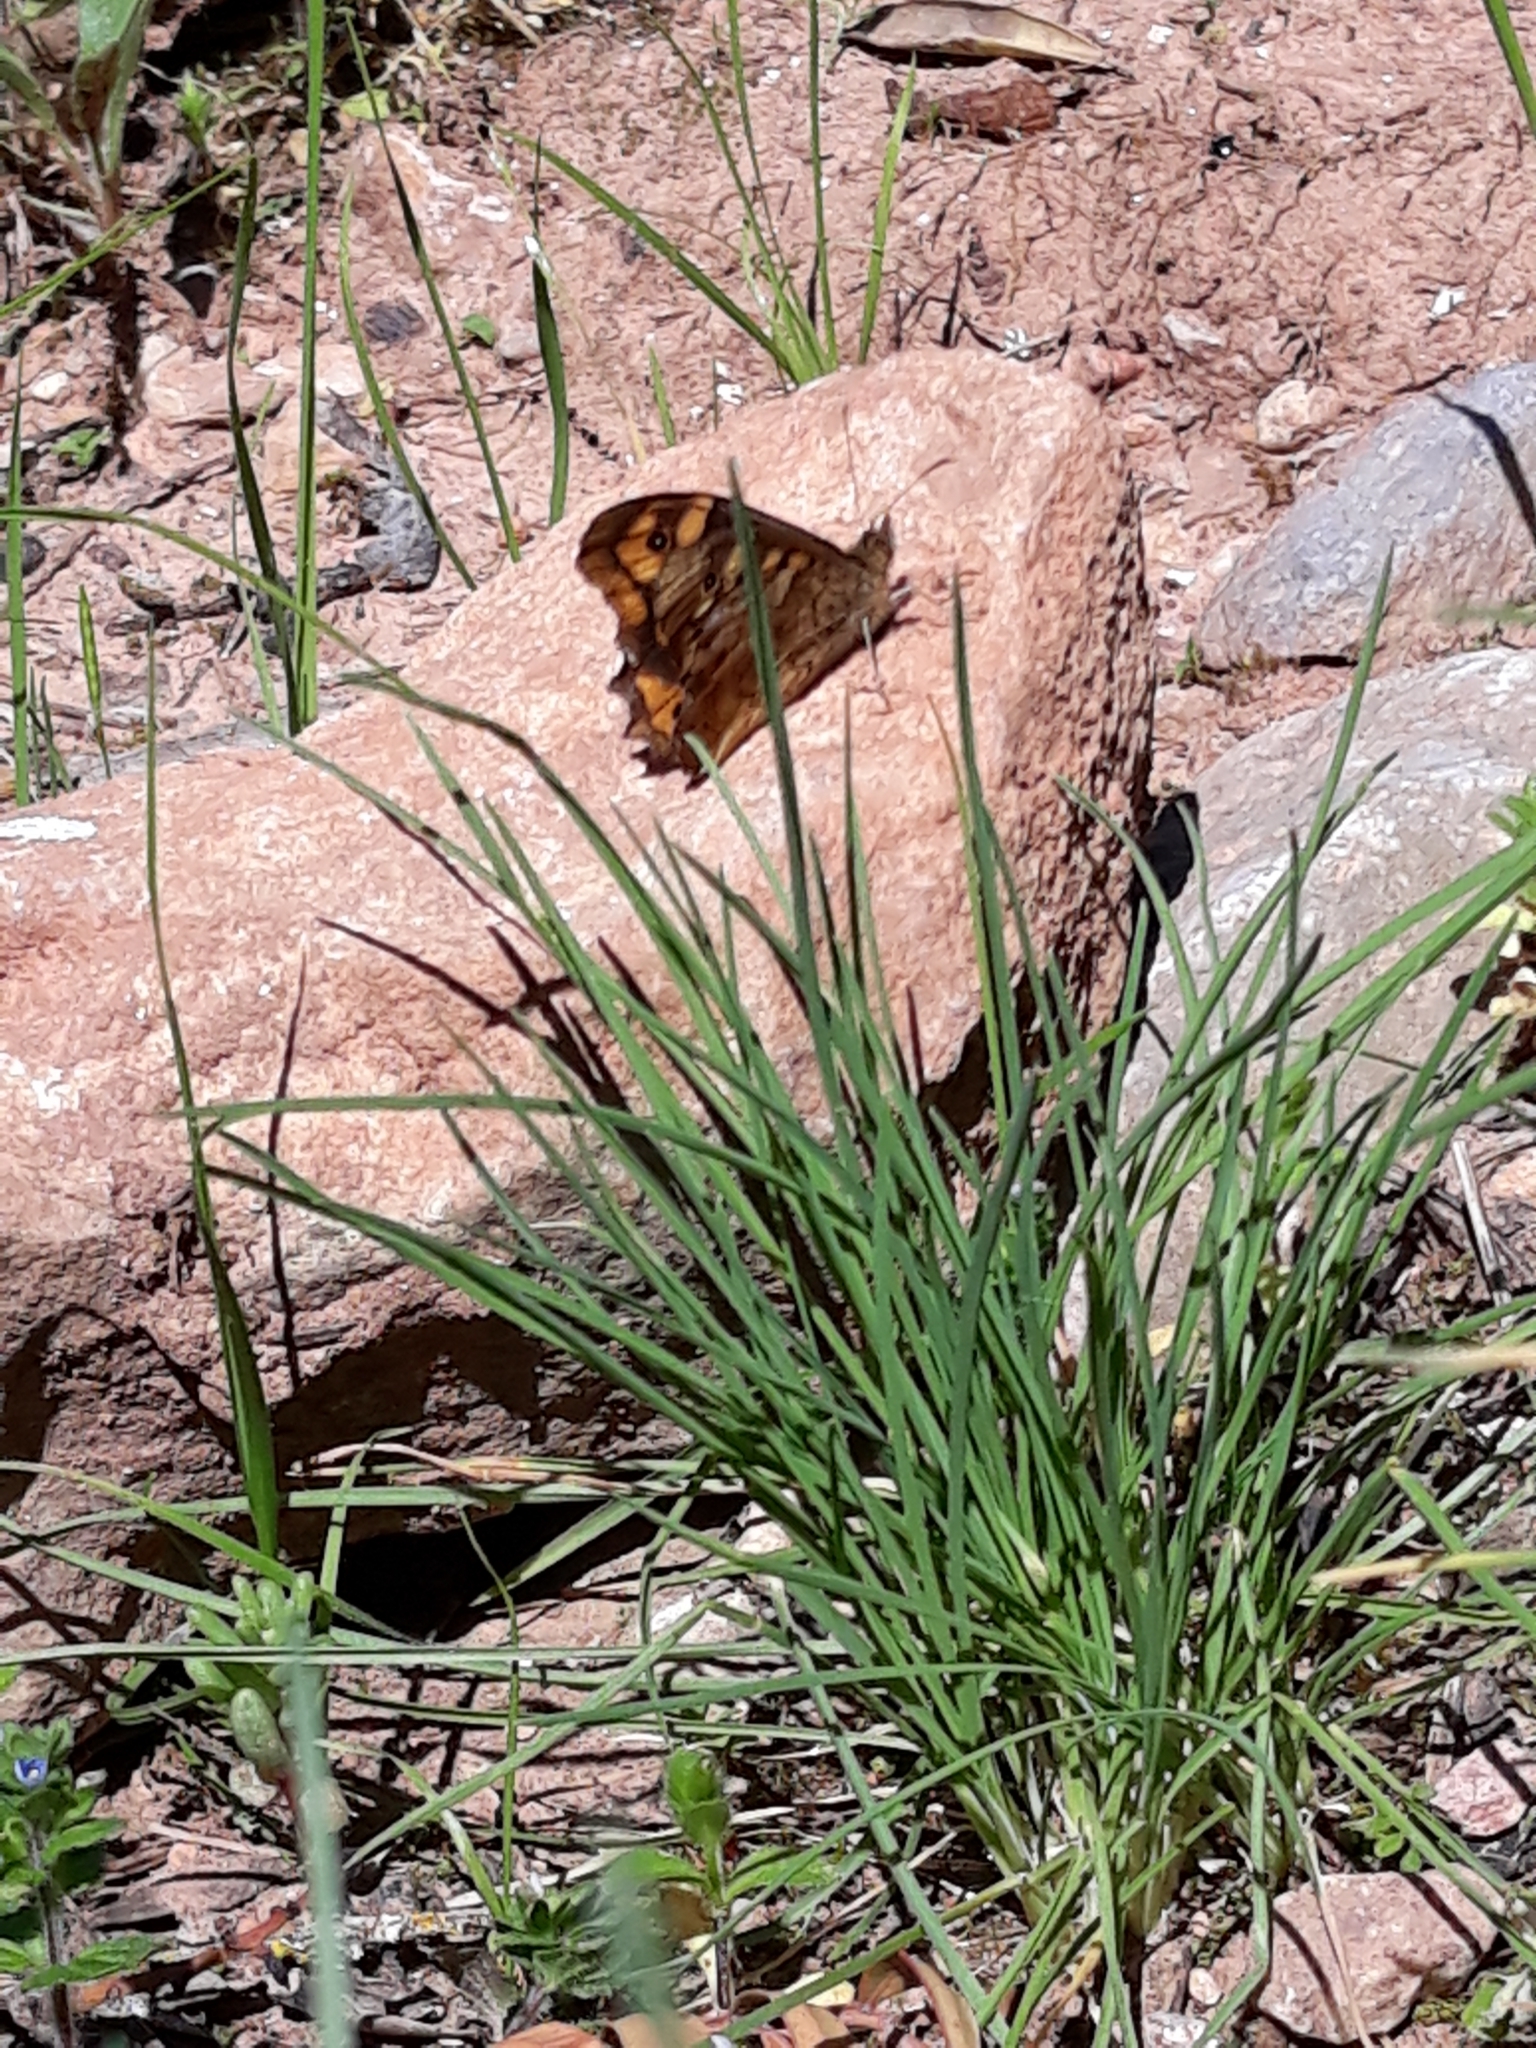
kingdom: Animalia
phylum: Arthropoda
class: Insecta
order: Lepidoptera
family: Nymphalidae
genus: Pararge
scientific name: Pararge aegeria
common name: Speckled wood
